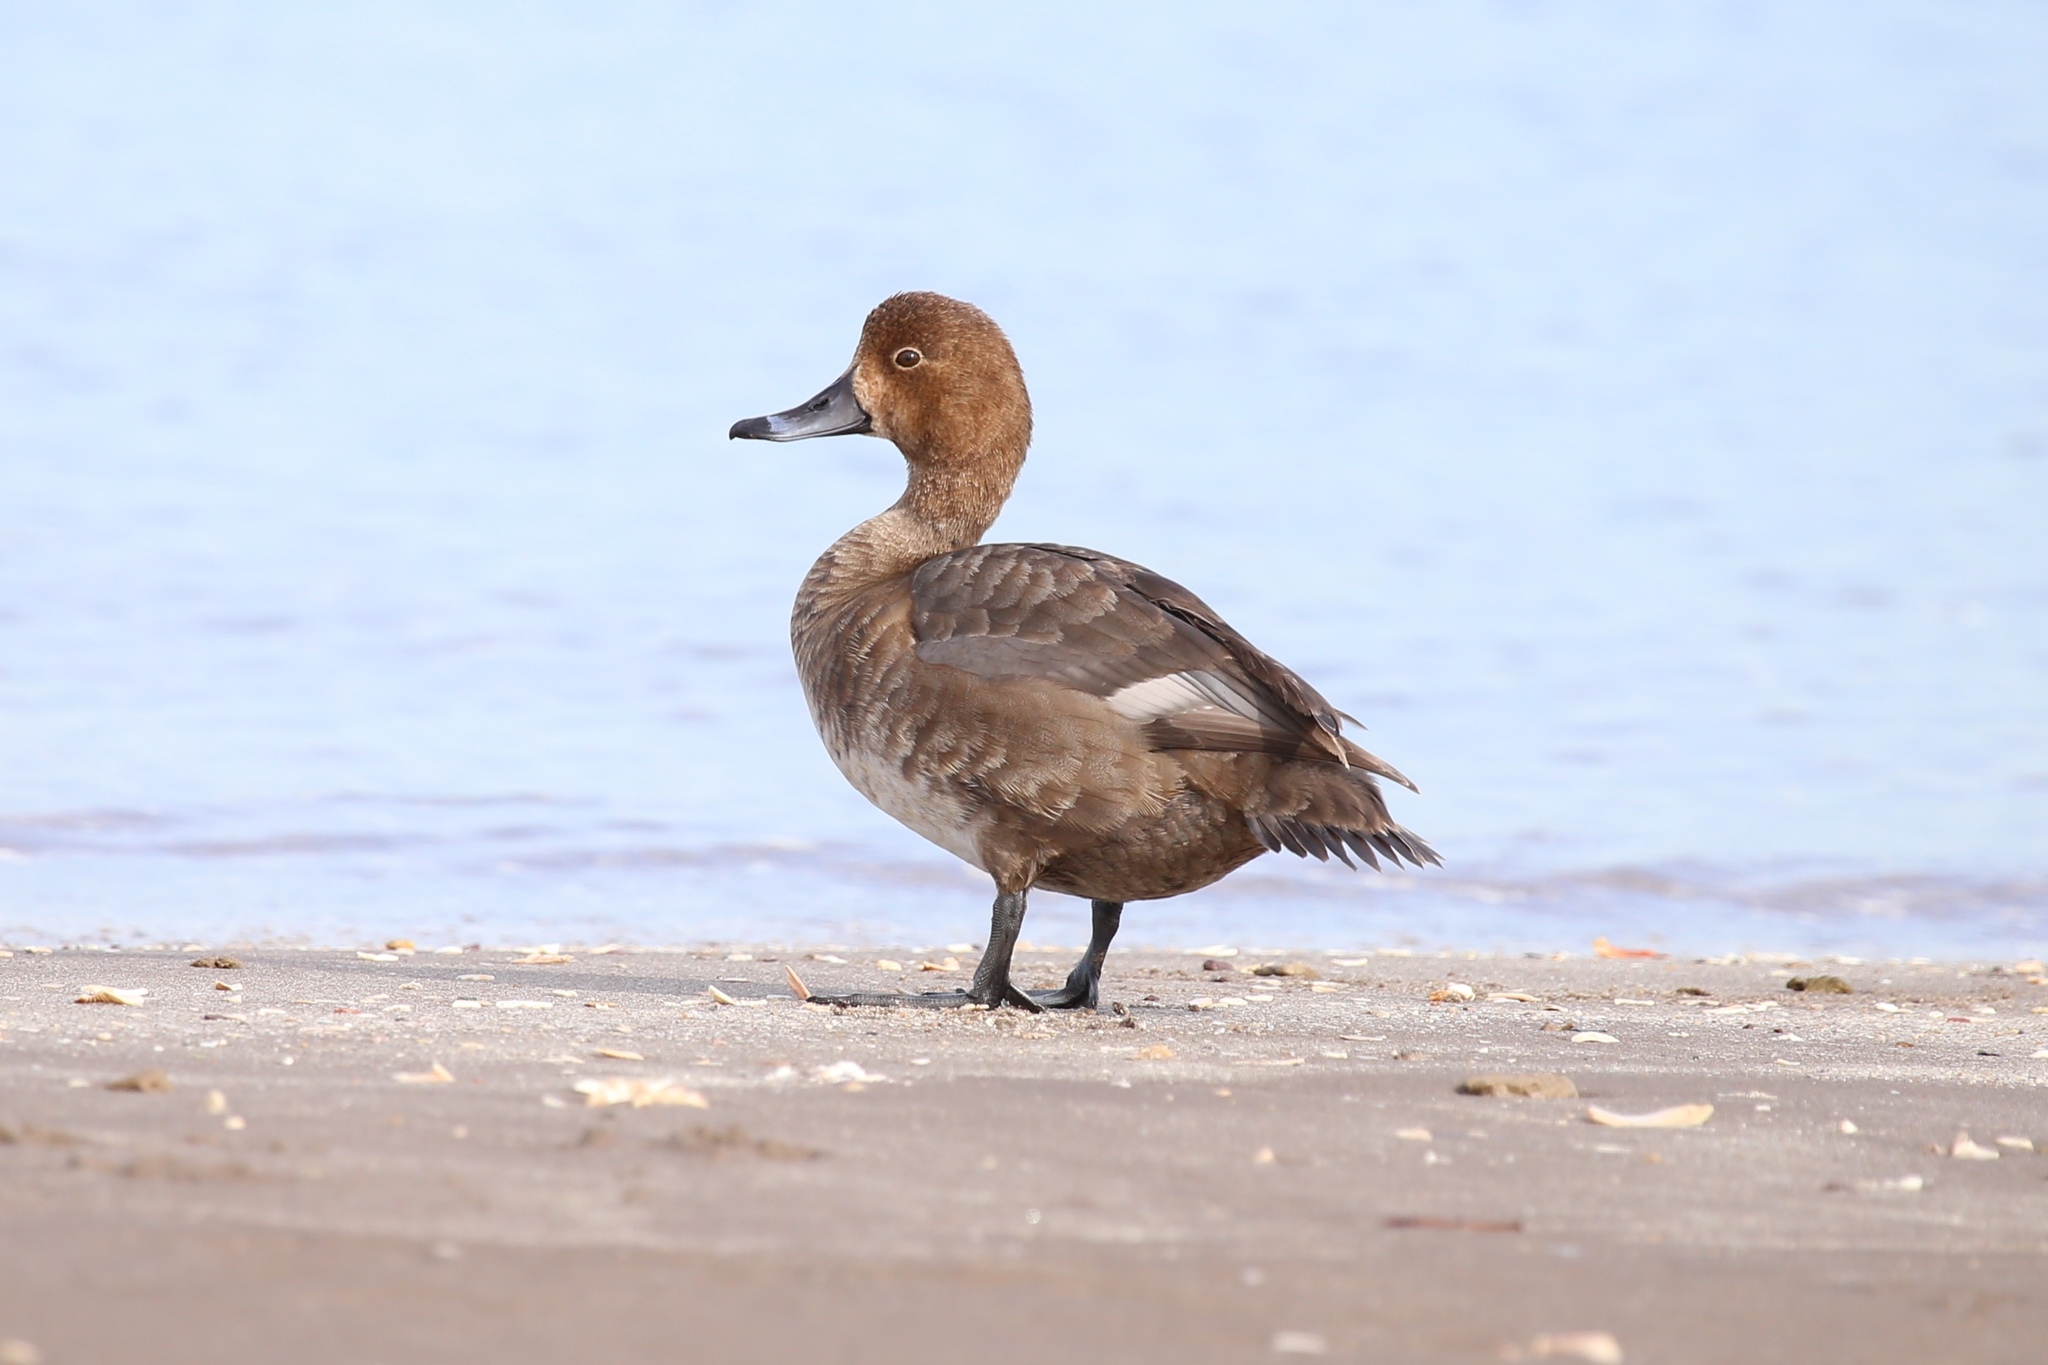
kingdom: Animalia
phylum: Chordata
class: Aves
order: Anseriformes
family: Anatidae
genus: Aythya
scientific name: Aythya americana
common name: Redhead
